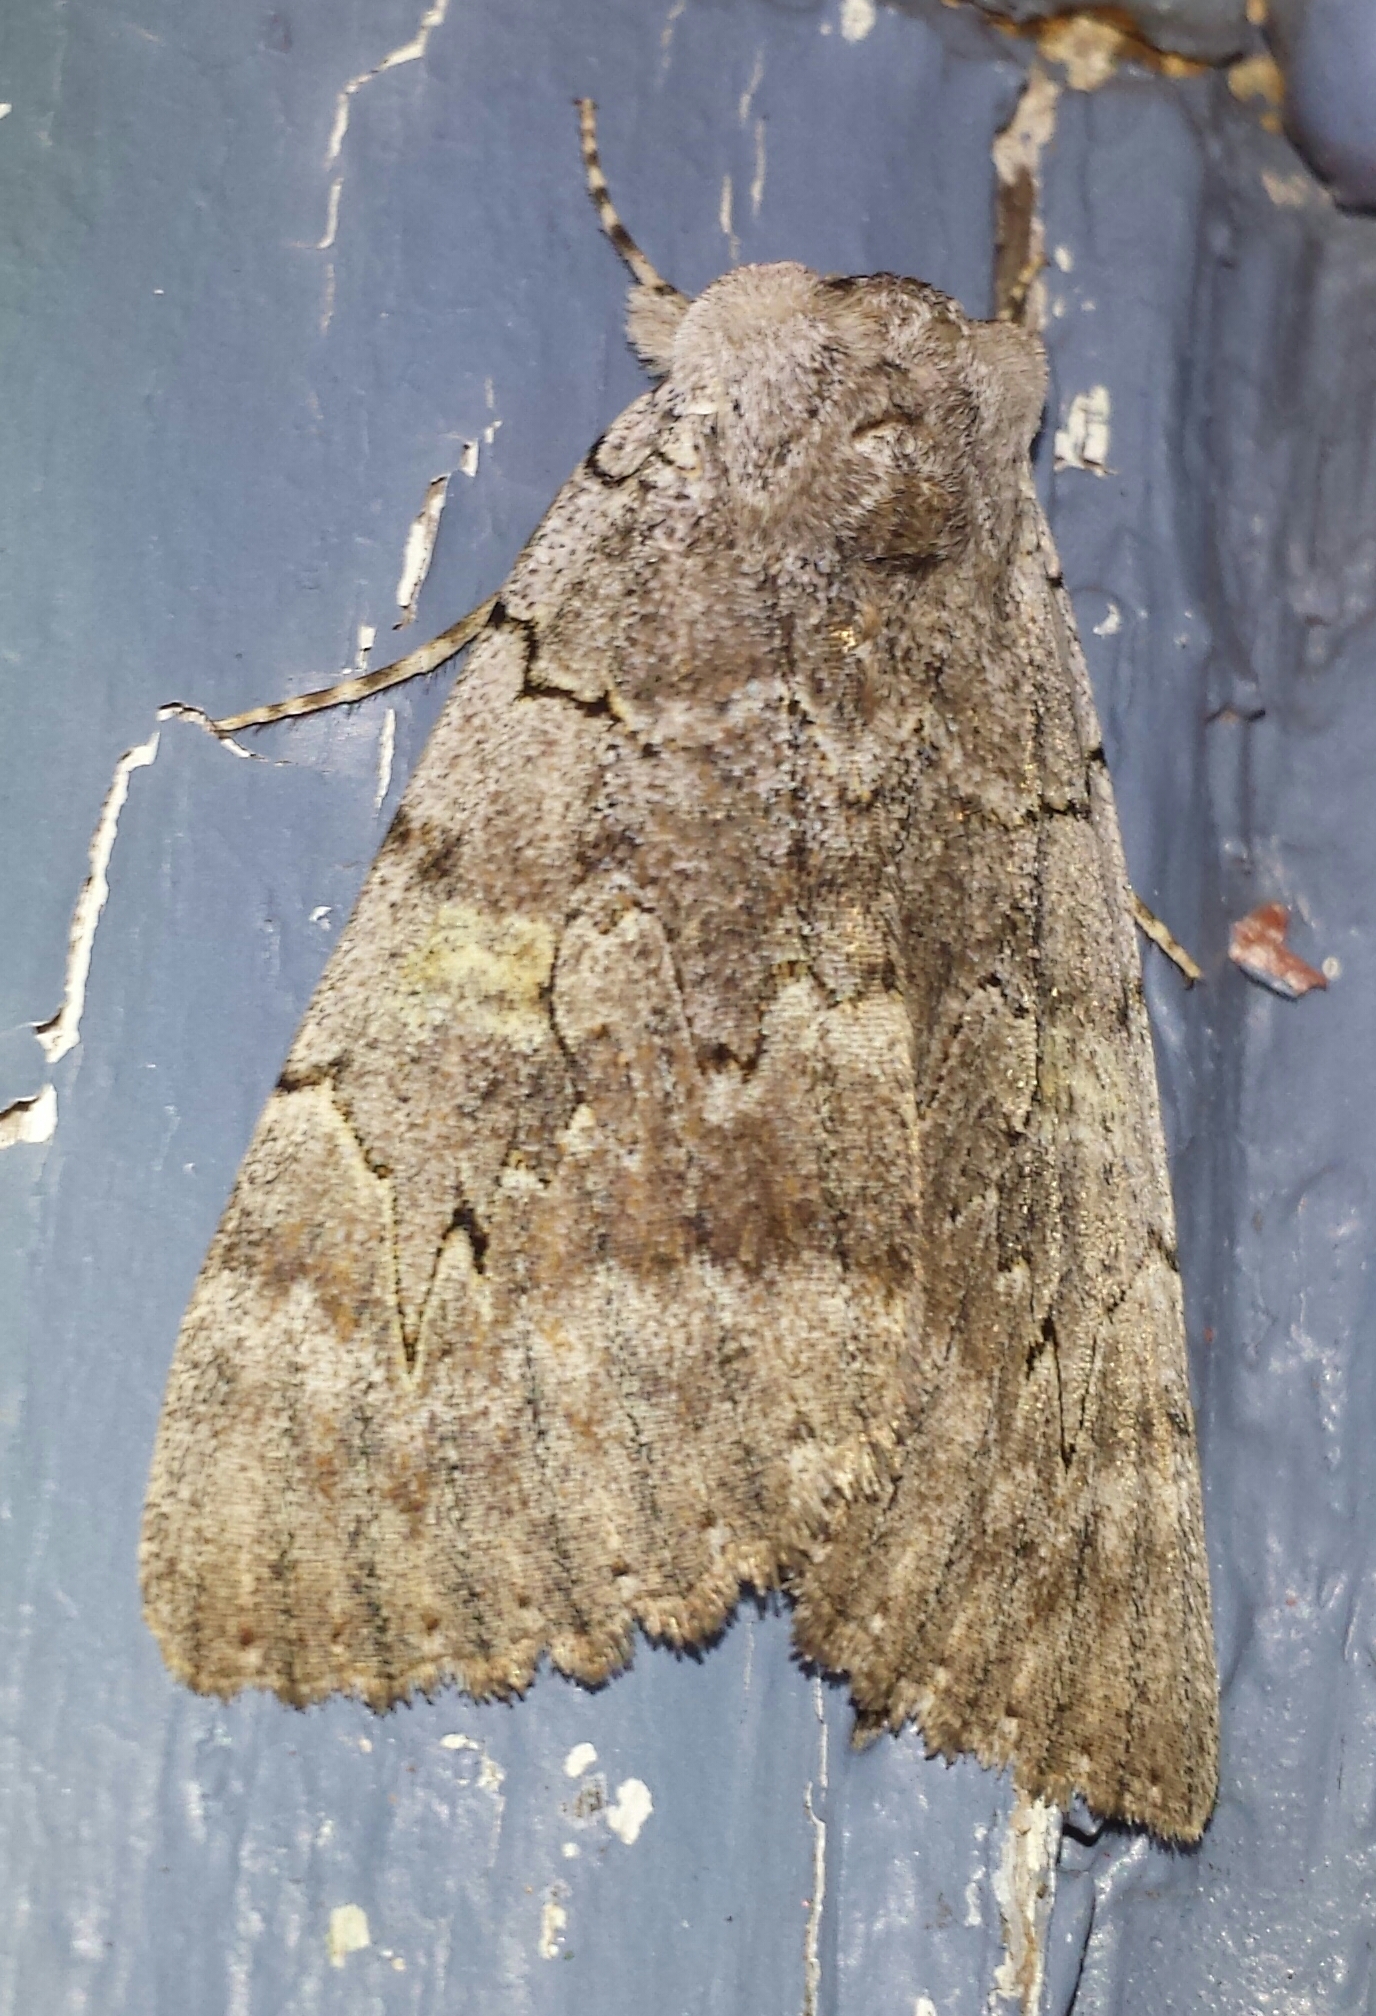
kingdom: Animalia
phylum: Arthropoda
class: Insecta
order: Lepidoptera
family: Erebidae
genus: Catocala
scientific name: Catocala concumbens
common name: Pink underwing
